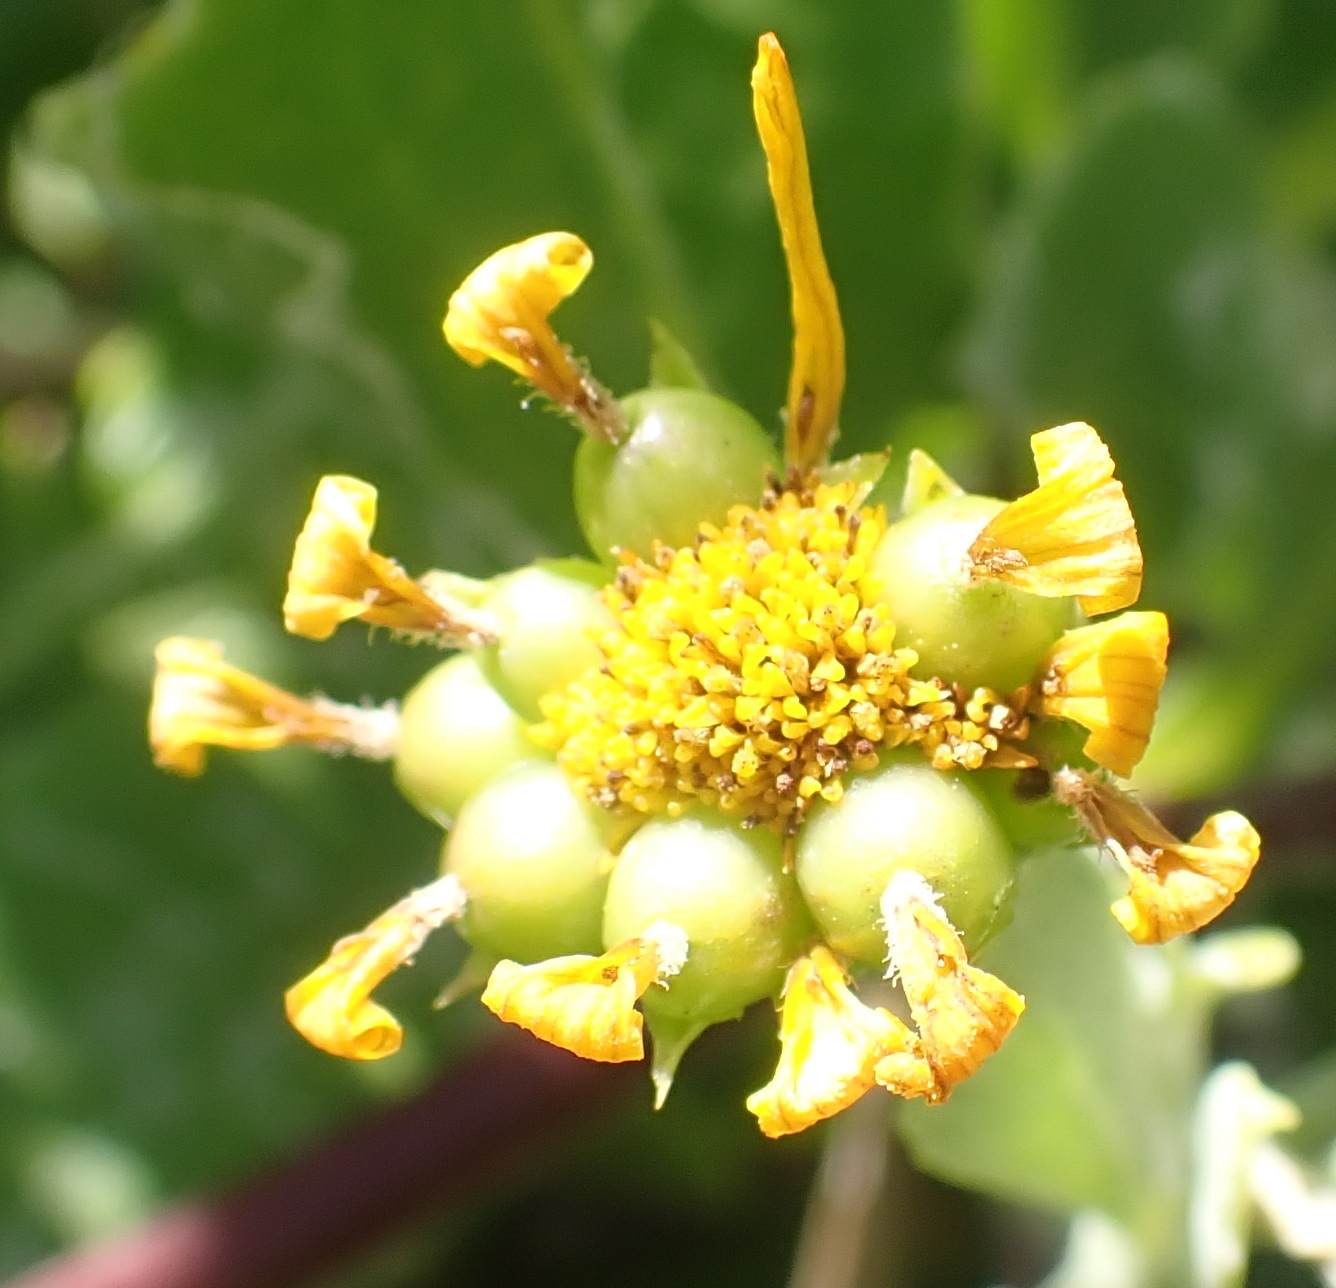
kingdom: Plantae
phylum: Tracheophyta
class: Magnoliopsida
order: Asterales
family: Asteraceae
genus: Osteospermum
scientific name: Osteospermum moniliferum
